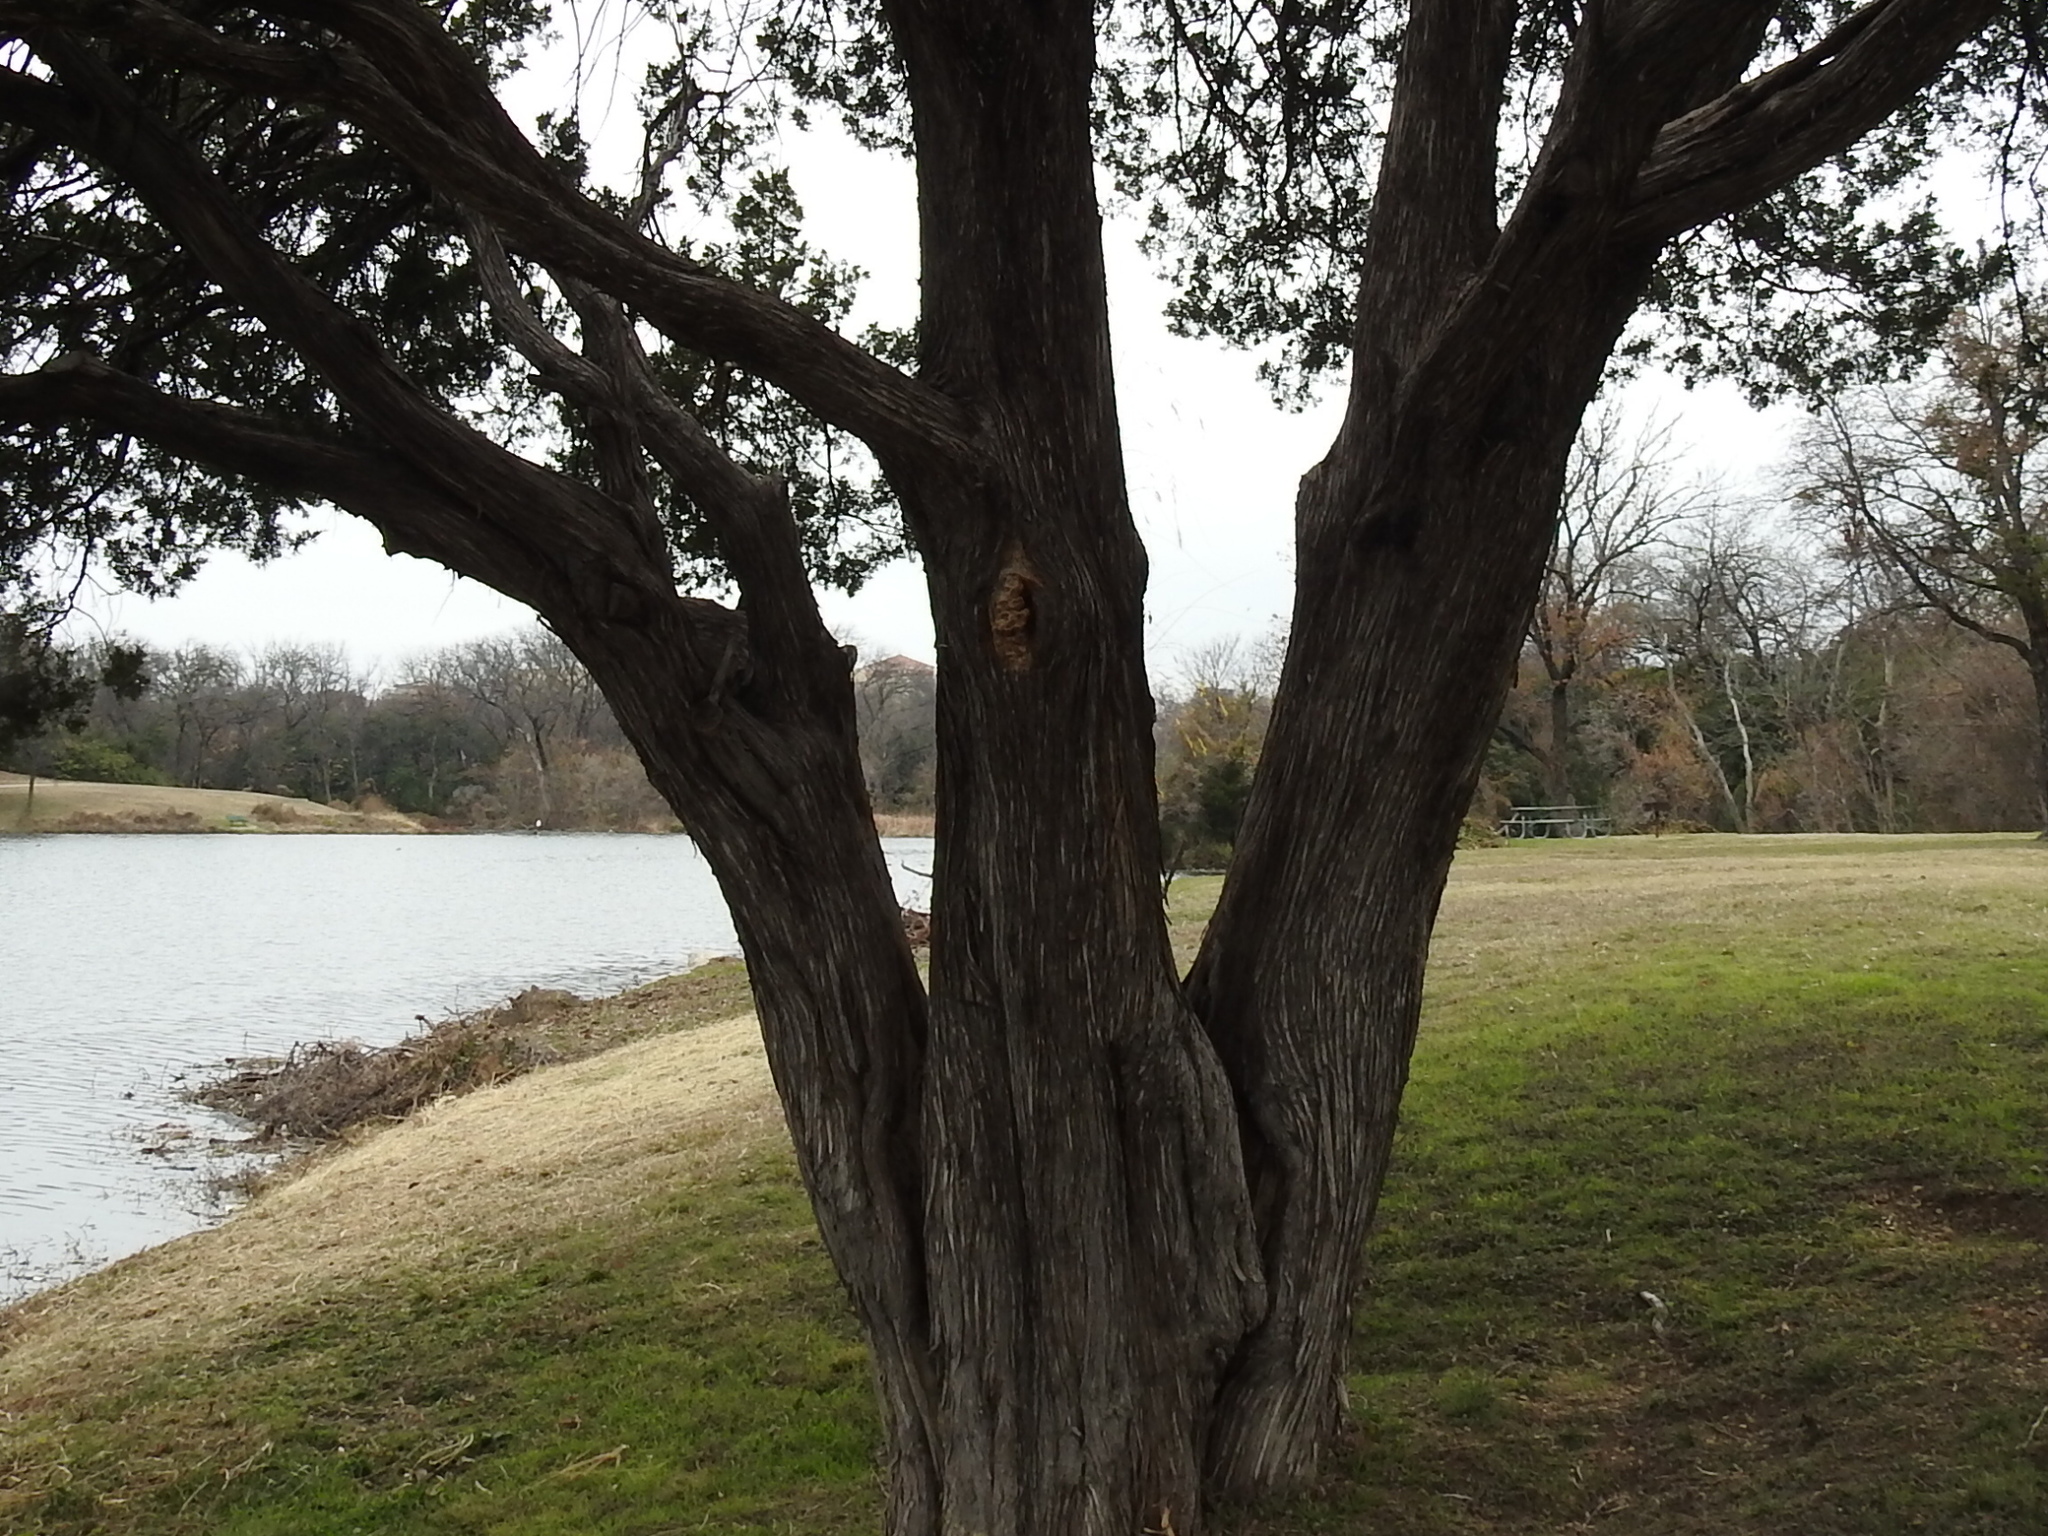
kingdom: Fungi
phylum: Basidiomycota
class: Agaricomycetes
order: Polyporales
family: Fomitopsidaceae
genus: Fomitopsis
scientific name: Fomitopsis
